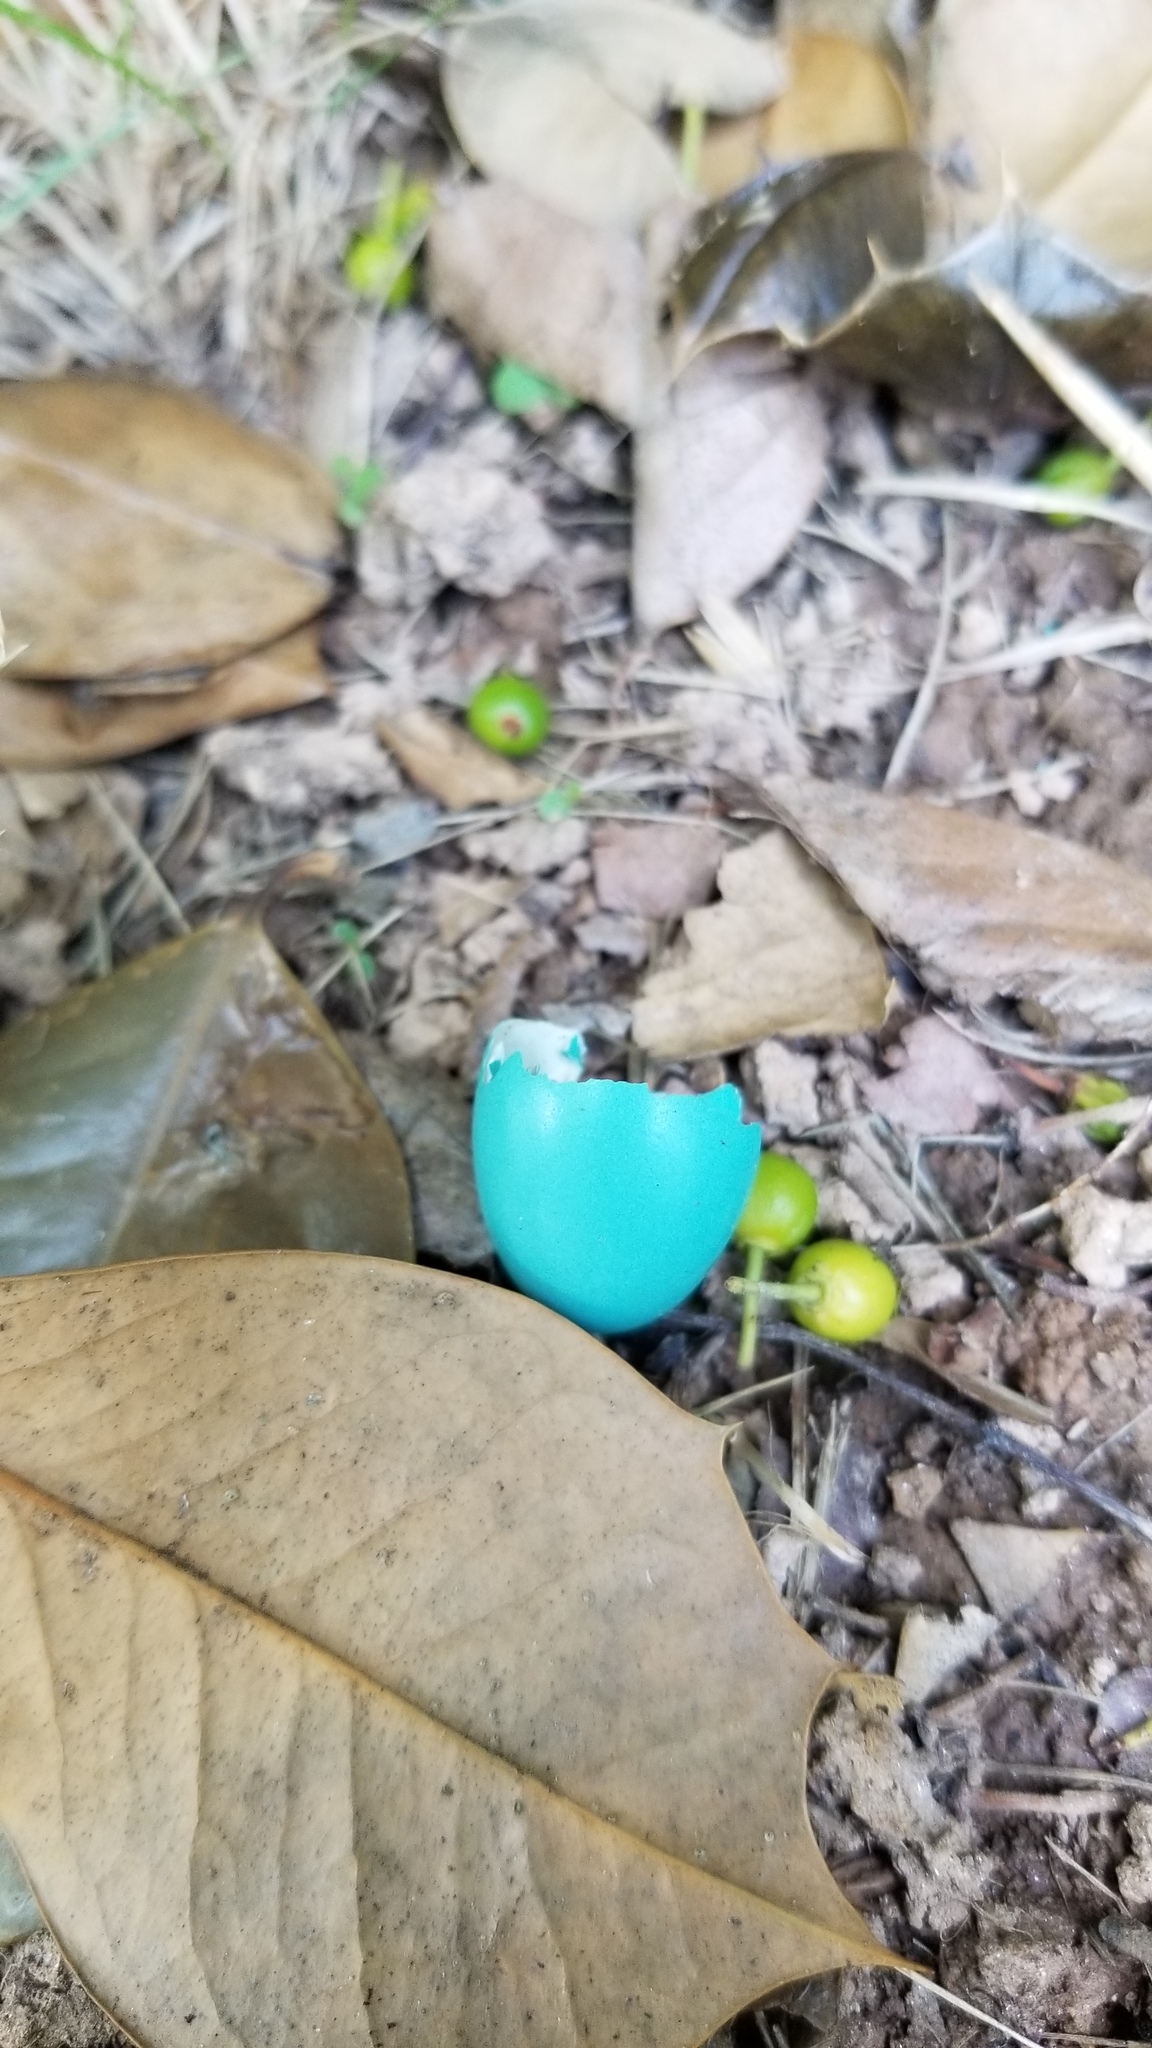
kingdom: Animalia
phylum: Chordata
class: Aves
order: Passeriformes
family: Turdidae
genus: Turdus
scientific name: Turdus migratorius
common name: American robin
